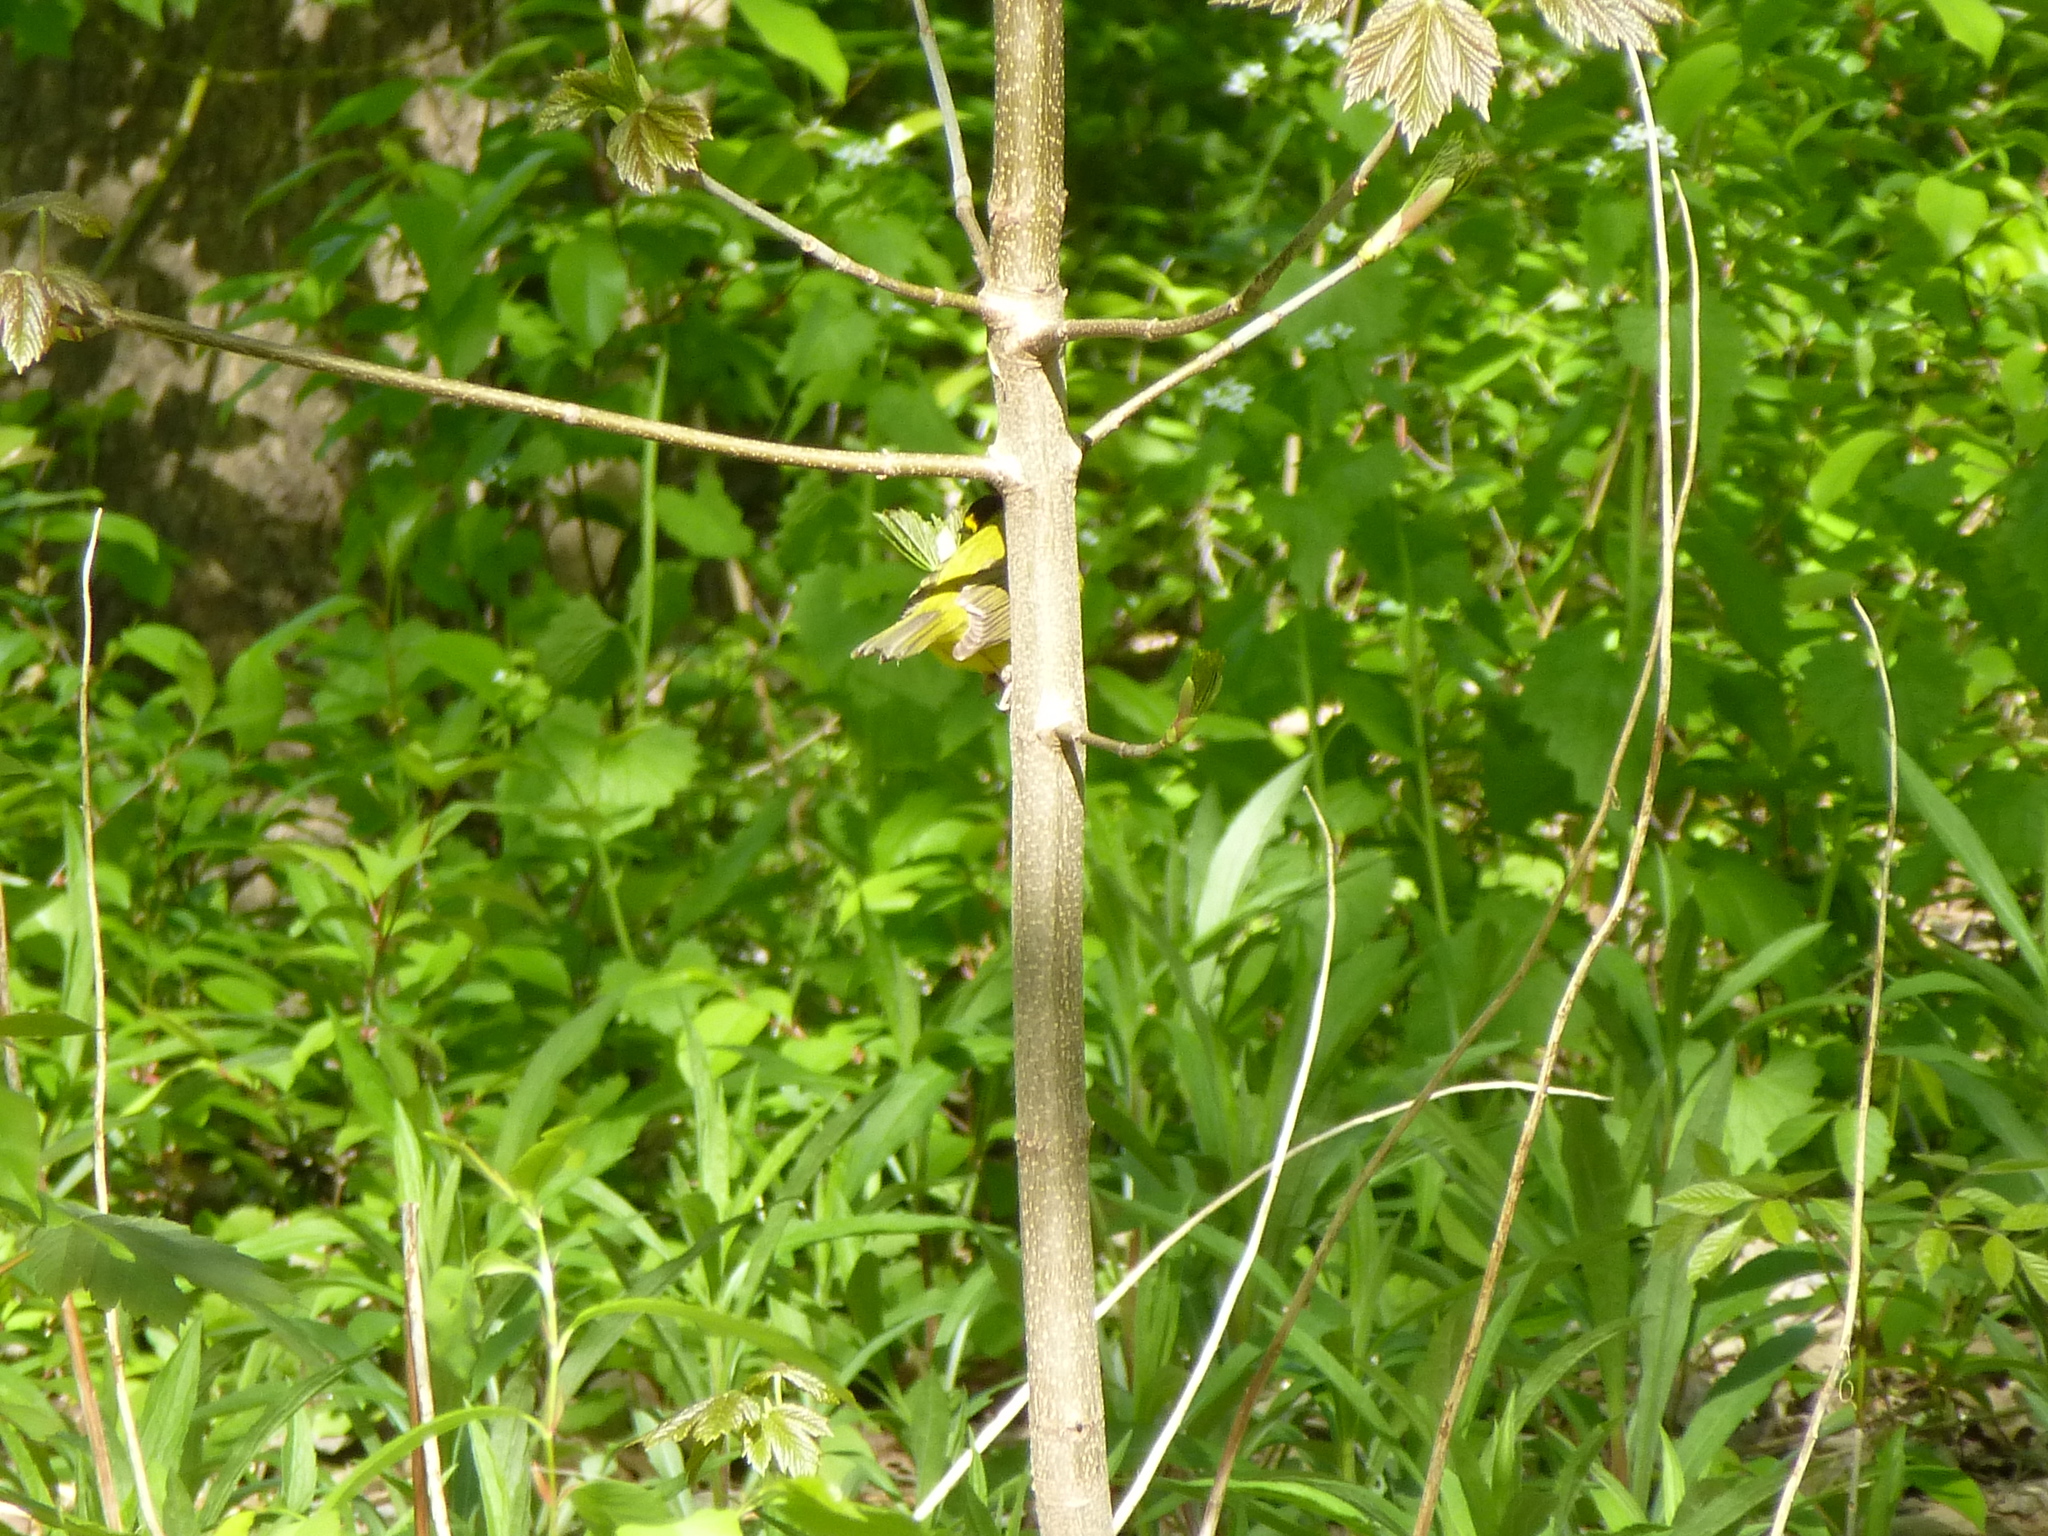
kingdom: Animalia
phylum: Chordata
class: Aves
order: Passeriformes
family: Parulidae
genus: Setophaga
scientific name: Setophaga citrina
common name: Hooded warbler
